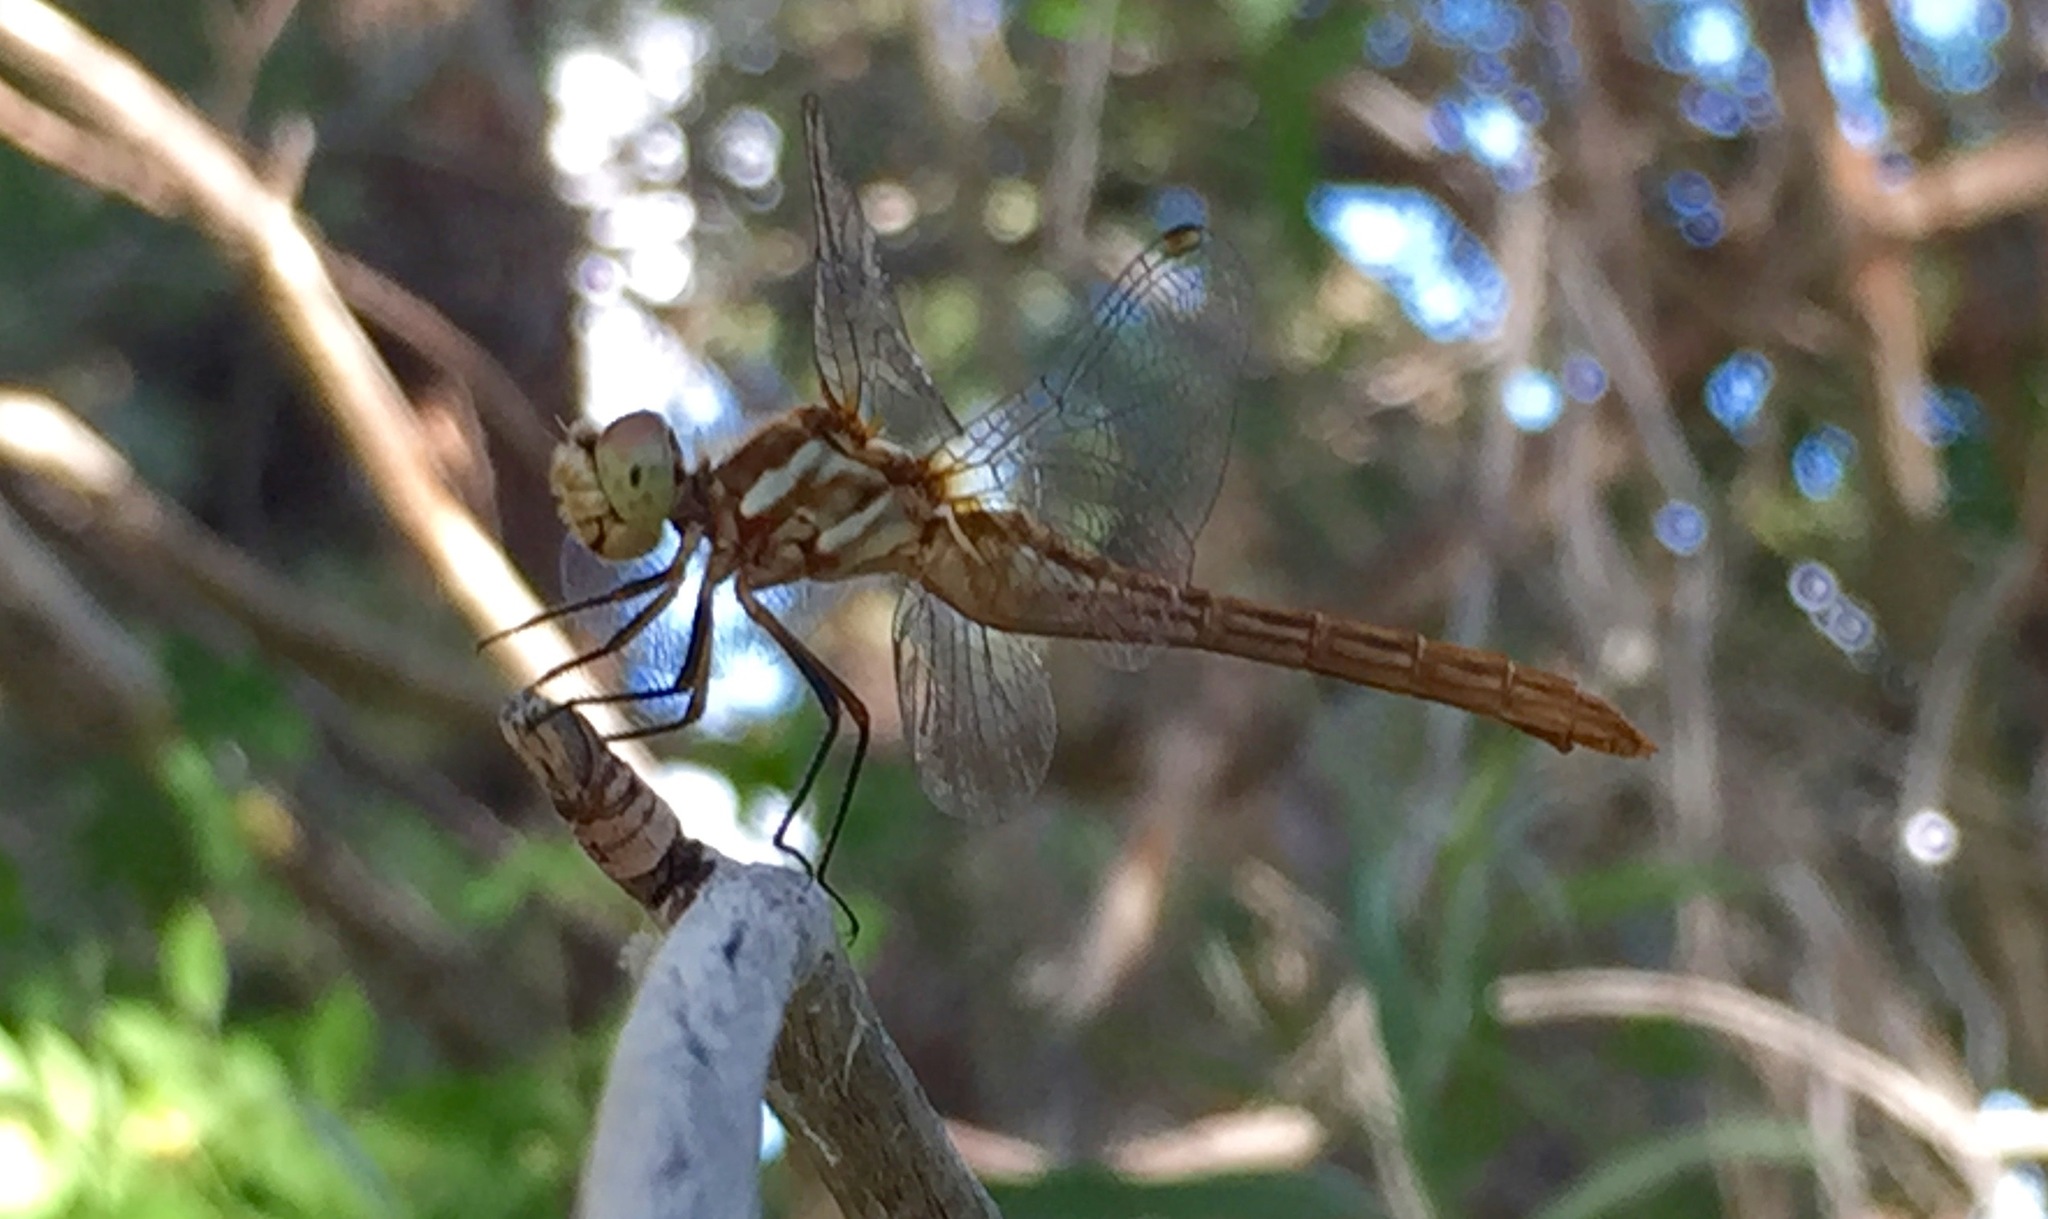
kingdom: Animalia
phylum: Arthropoda
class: Insecta
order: Odonata
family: Libellulidae
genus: Sympetrum
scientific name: Sympetrum pallipes
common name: Striped meadowhawk
